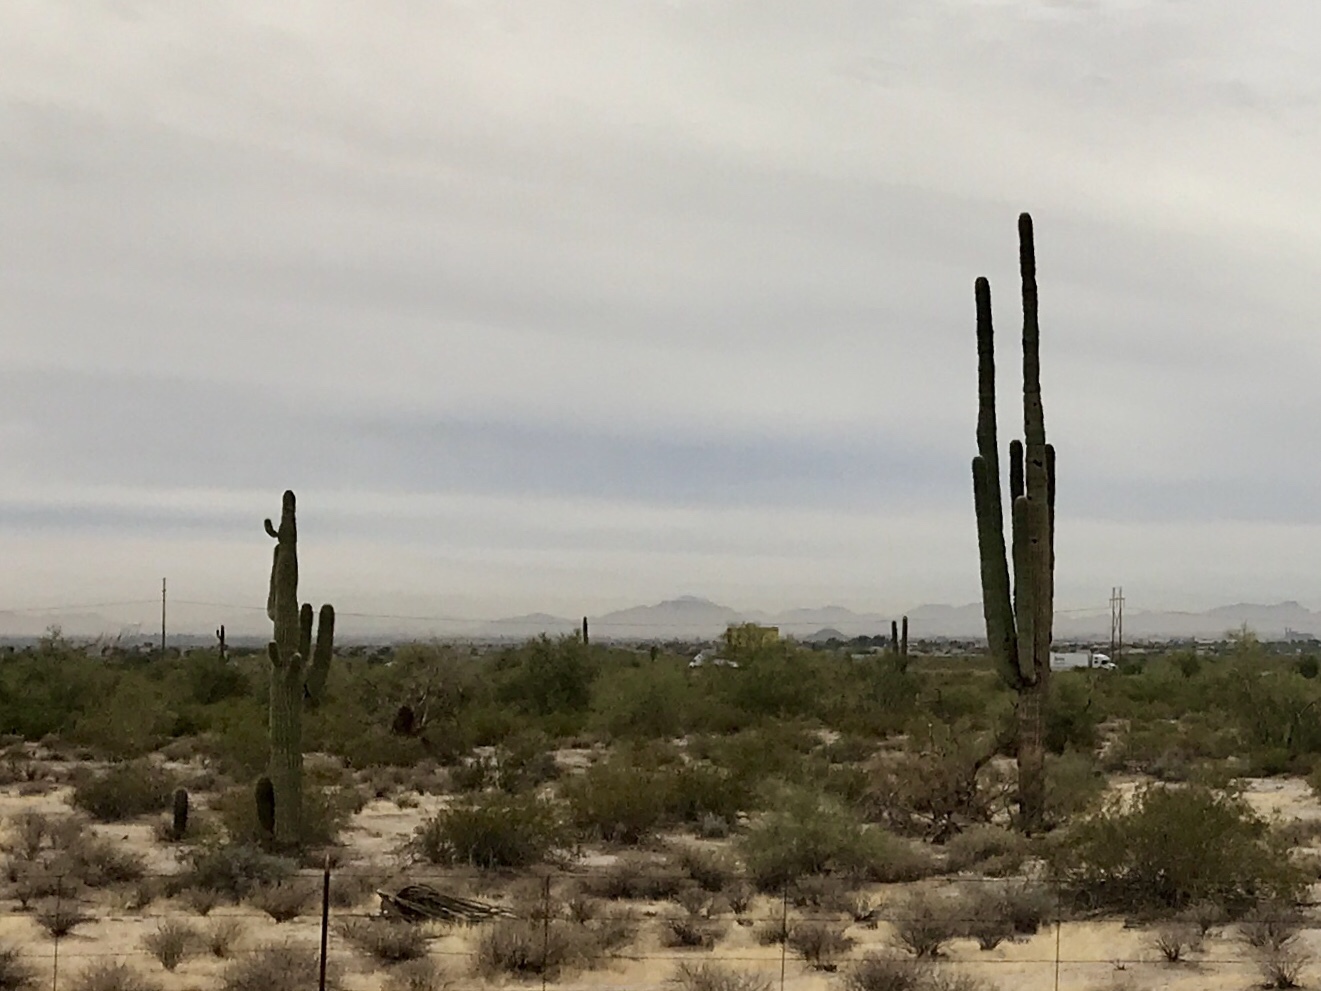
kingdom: Plantae
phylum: Tracheophyta
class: Magnoliopsida
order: Caryophyllales
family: Cactaceae
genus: Carnegiea
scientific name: Carnegiea gigantea
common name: Saguaro
